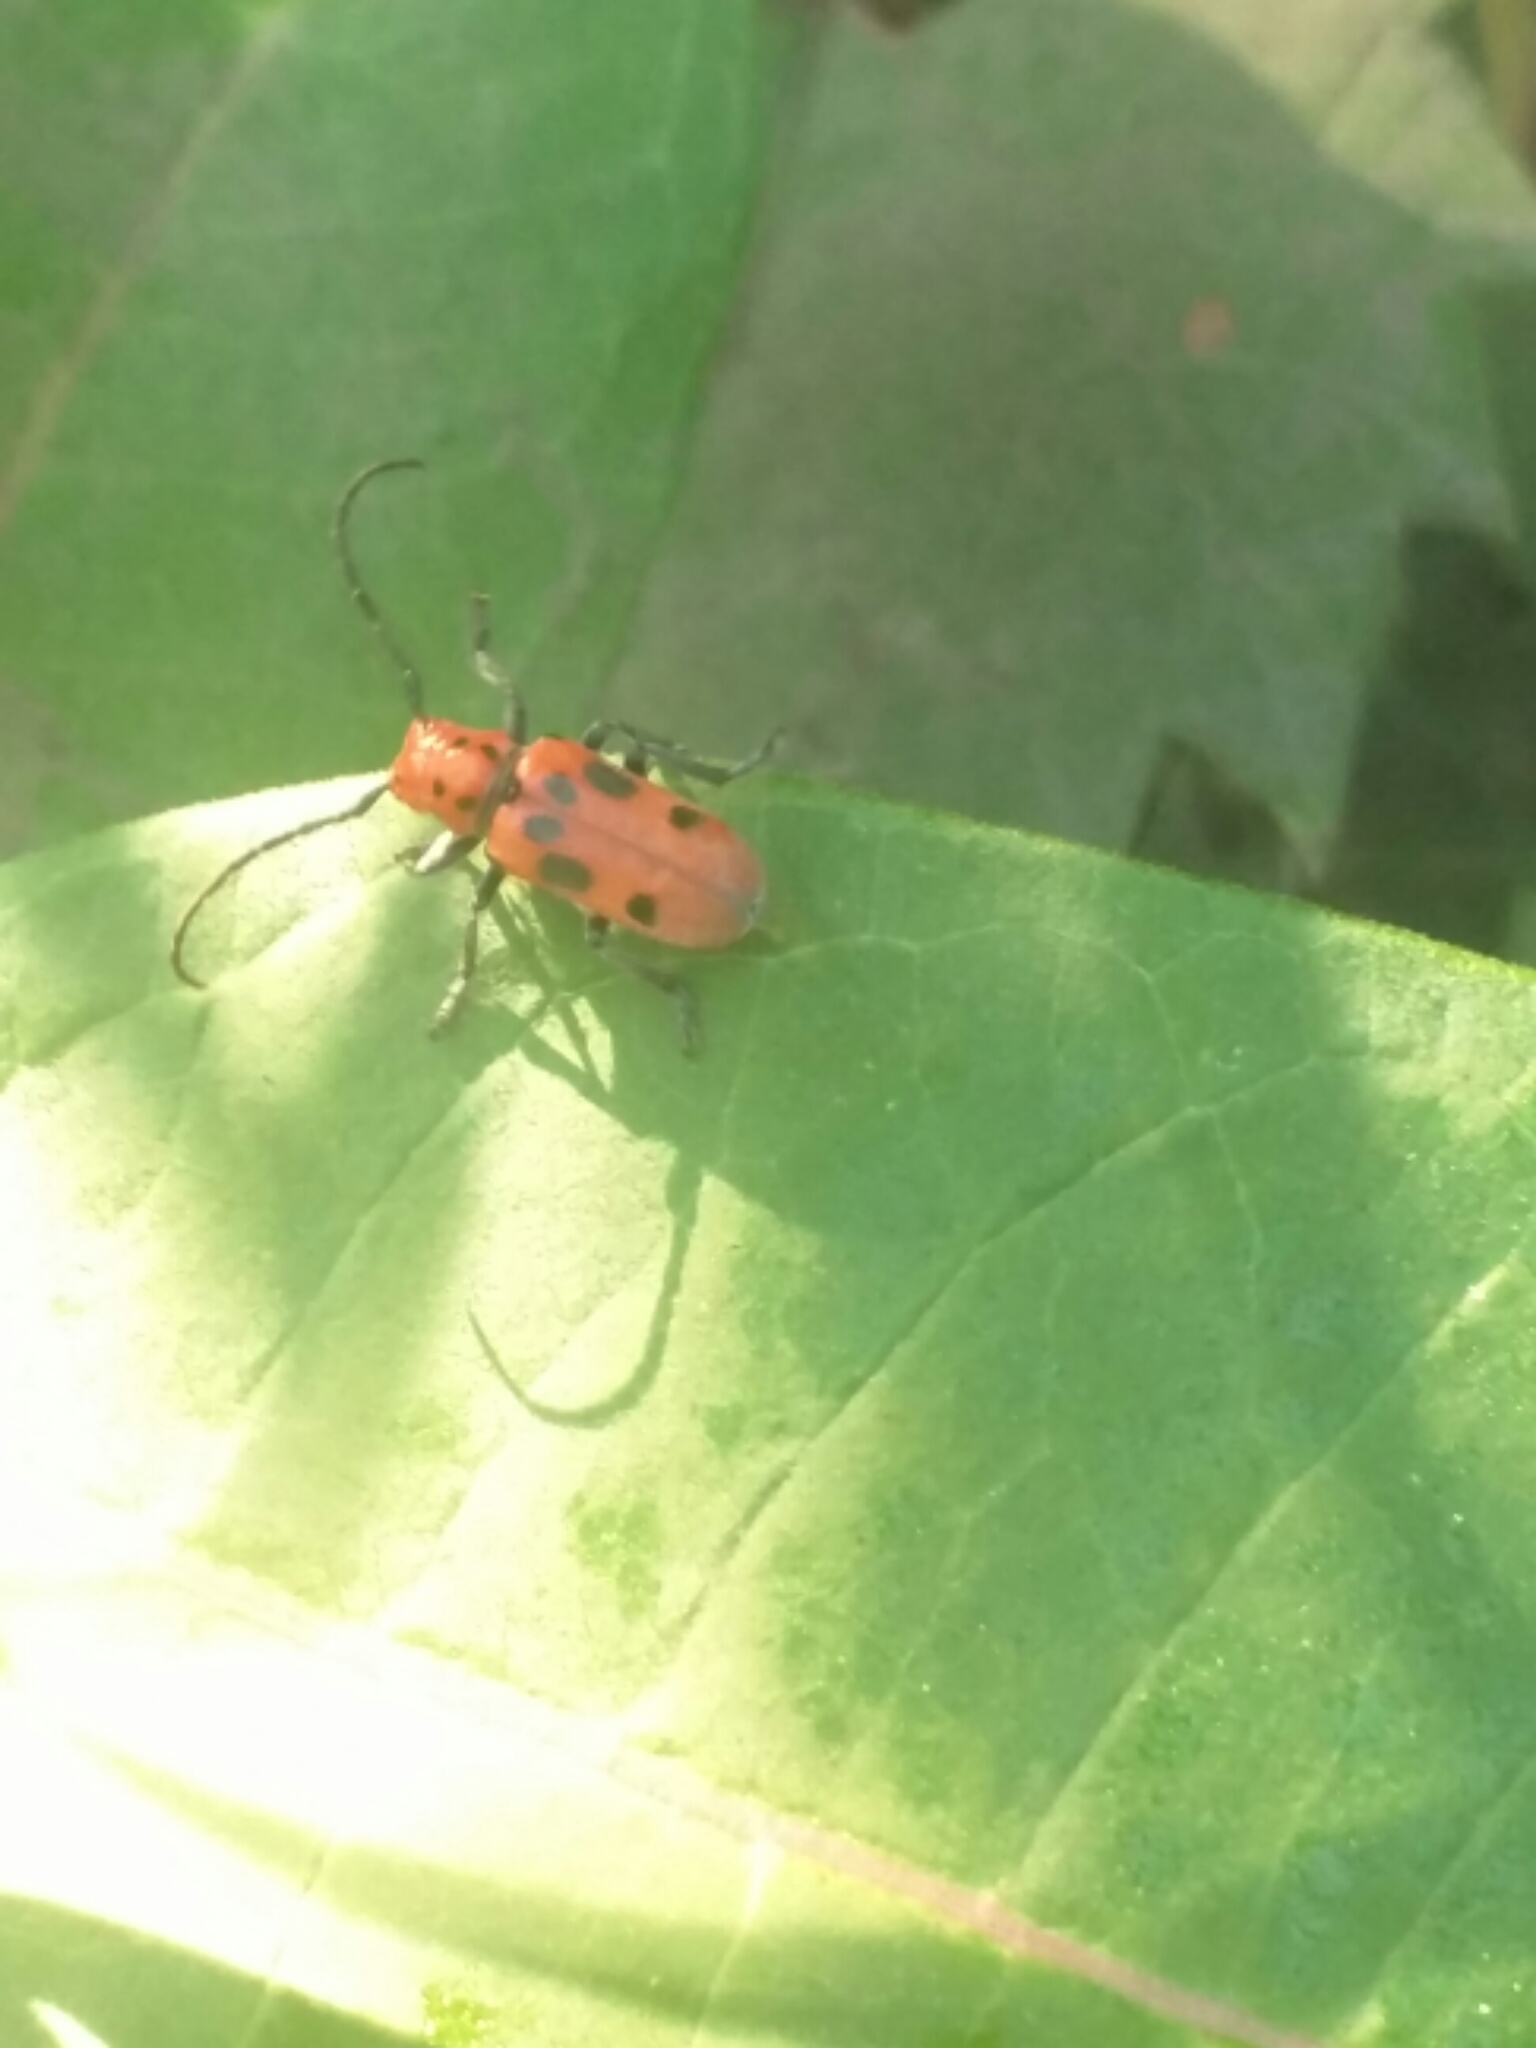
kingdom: Animalia
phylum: Arthropoda
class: Insecta
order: Coleoptera
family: Cerambycidae
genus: Tetraopes
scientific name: Tetraopes tetrophthalmus
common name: Red milkweed beetle
